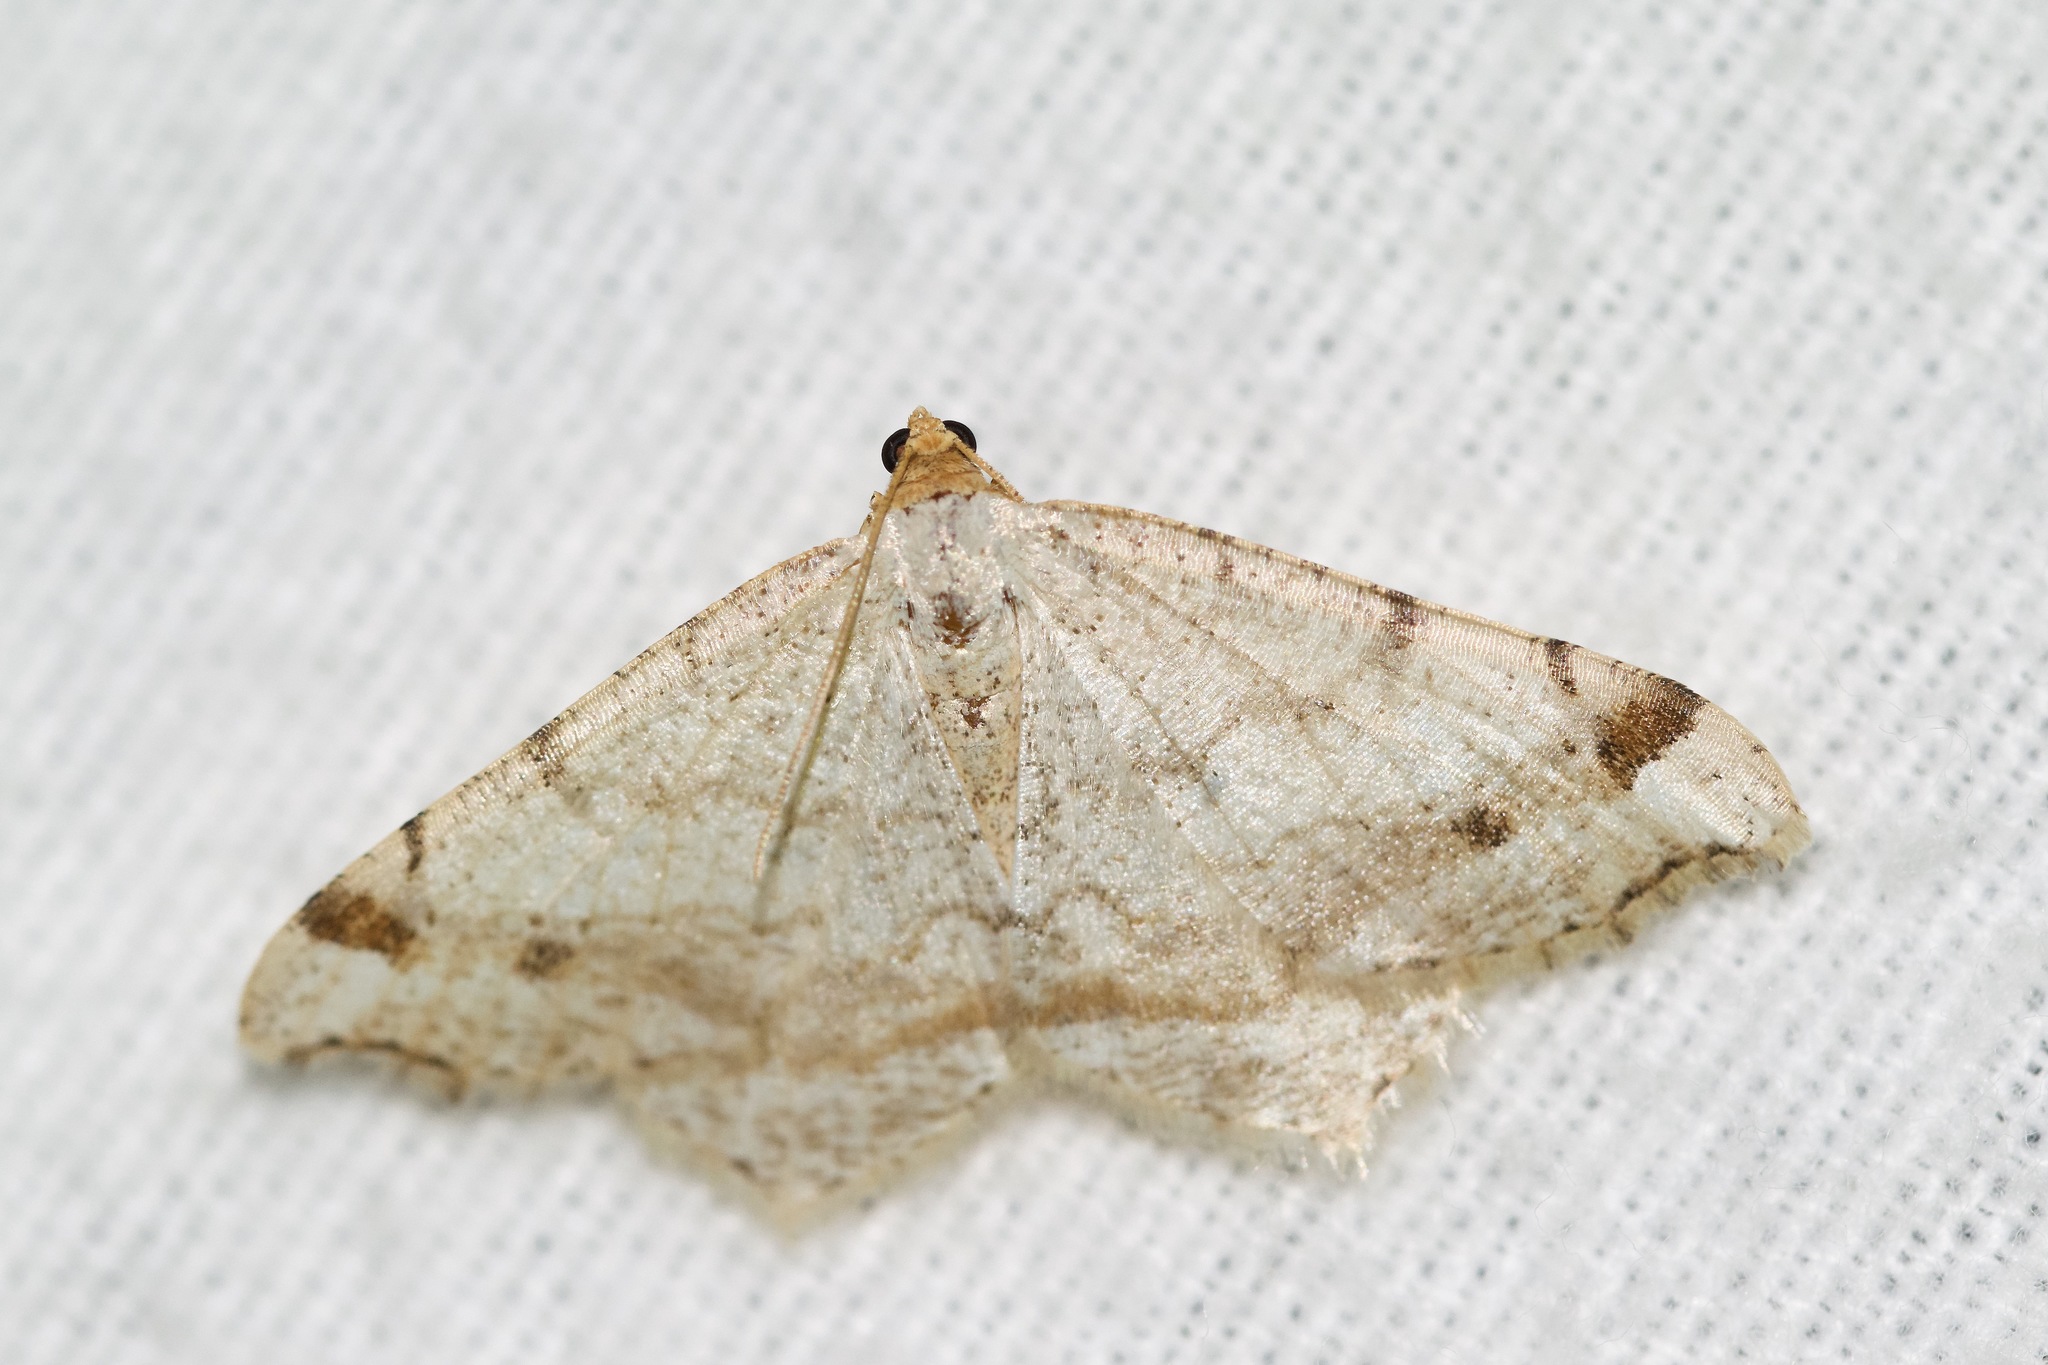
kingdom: Animalia
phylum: Arthropoda
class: Insecta
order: Lepidoptera
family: Geometridae
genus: Macaria
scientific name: Macaria bisignata
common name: Red-headed inchworm
